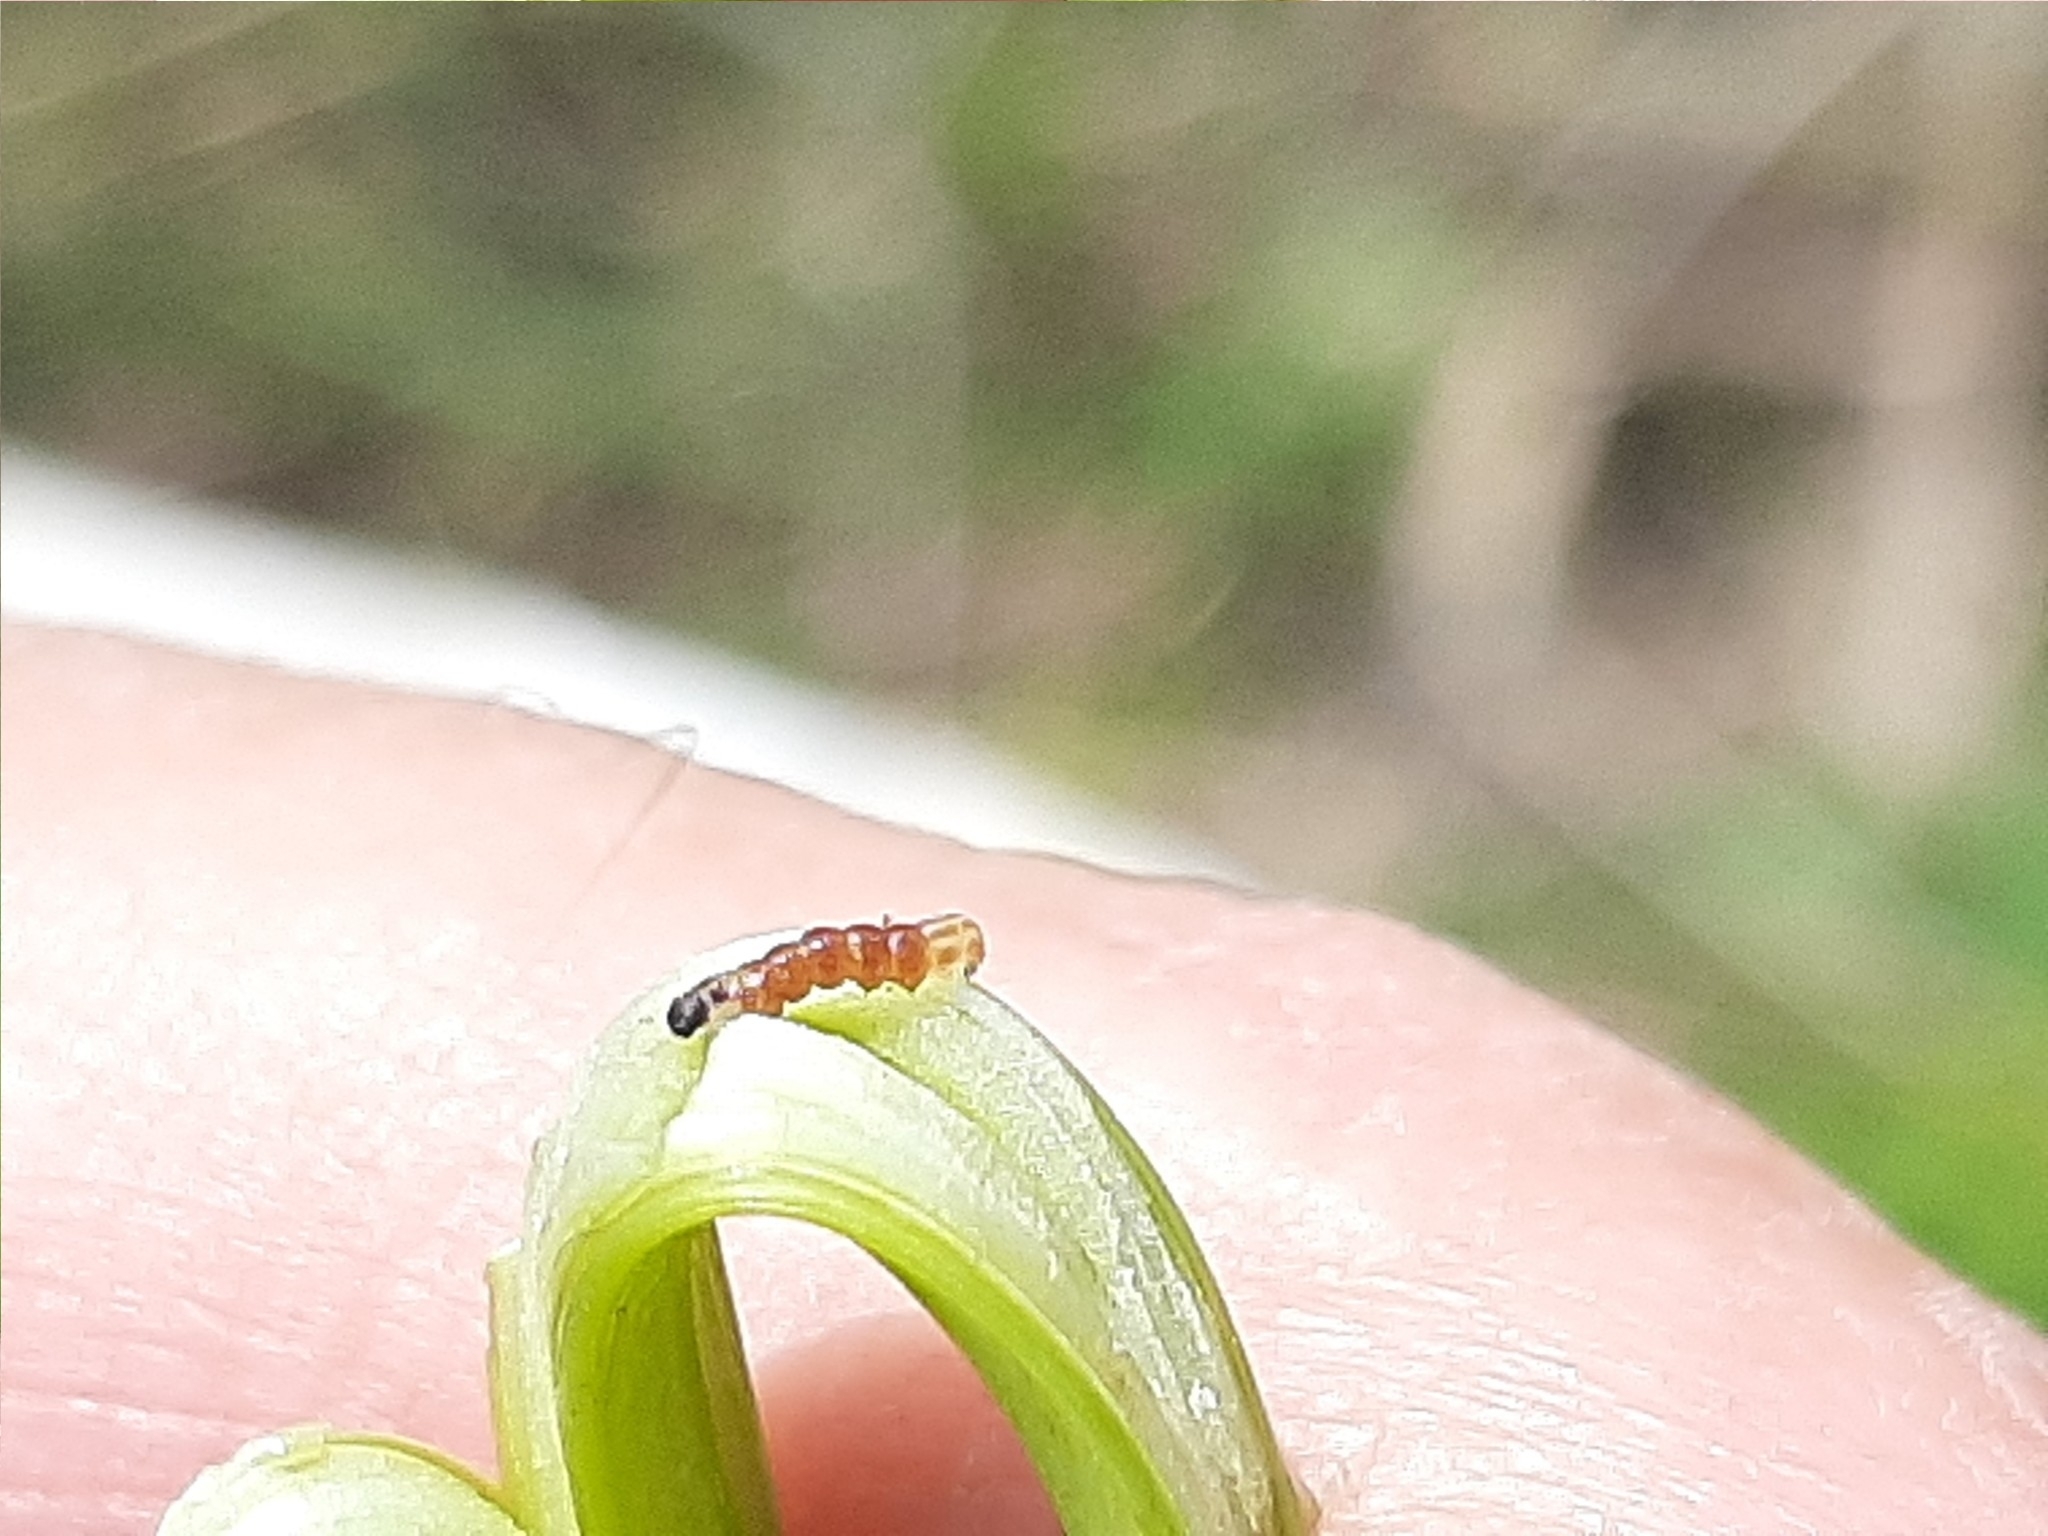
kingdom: Animalia
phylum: Arthropoda
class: Insecta
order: Lepidoptera
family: Noctuidae
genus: Papaipema
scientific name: Papaipema rigida
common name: Rigid sunflower borer moth
